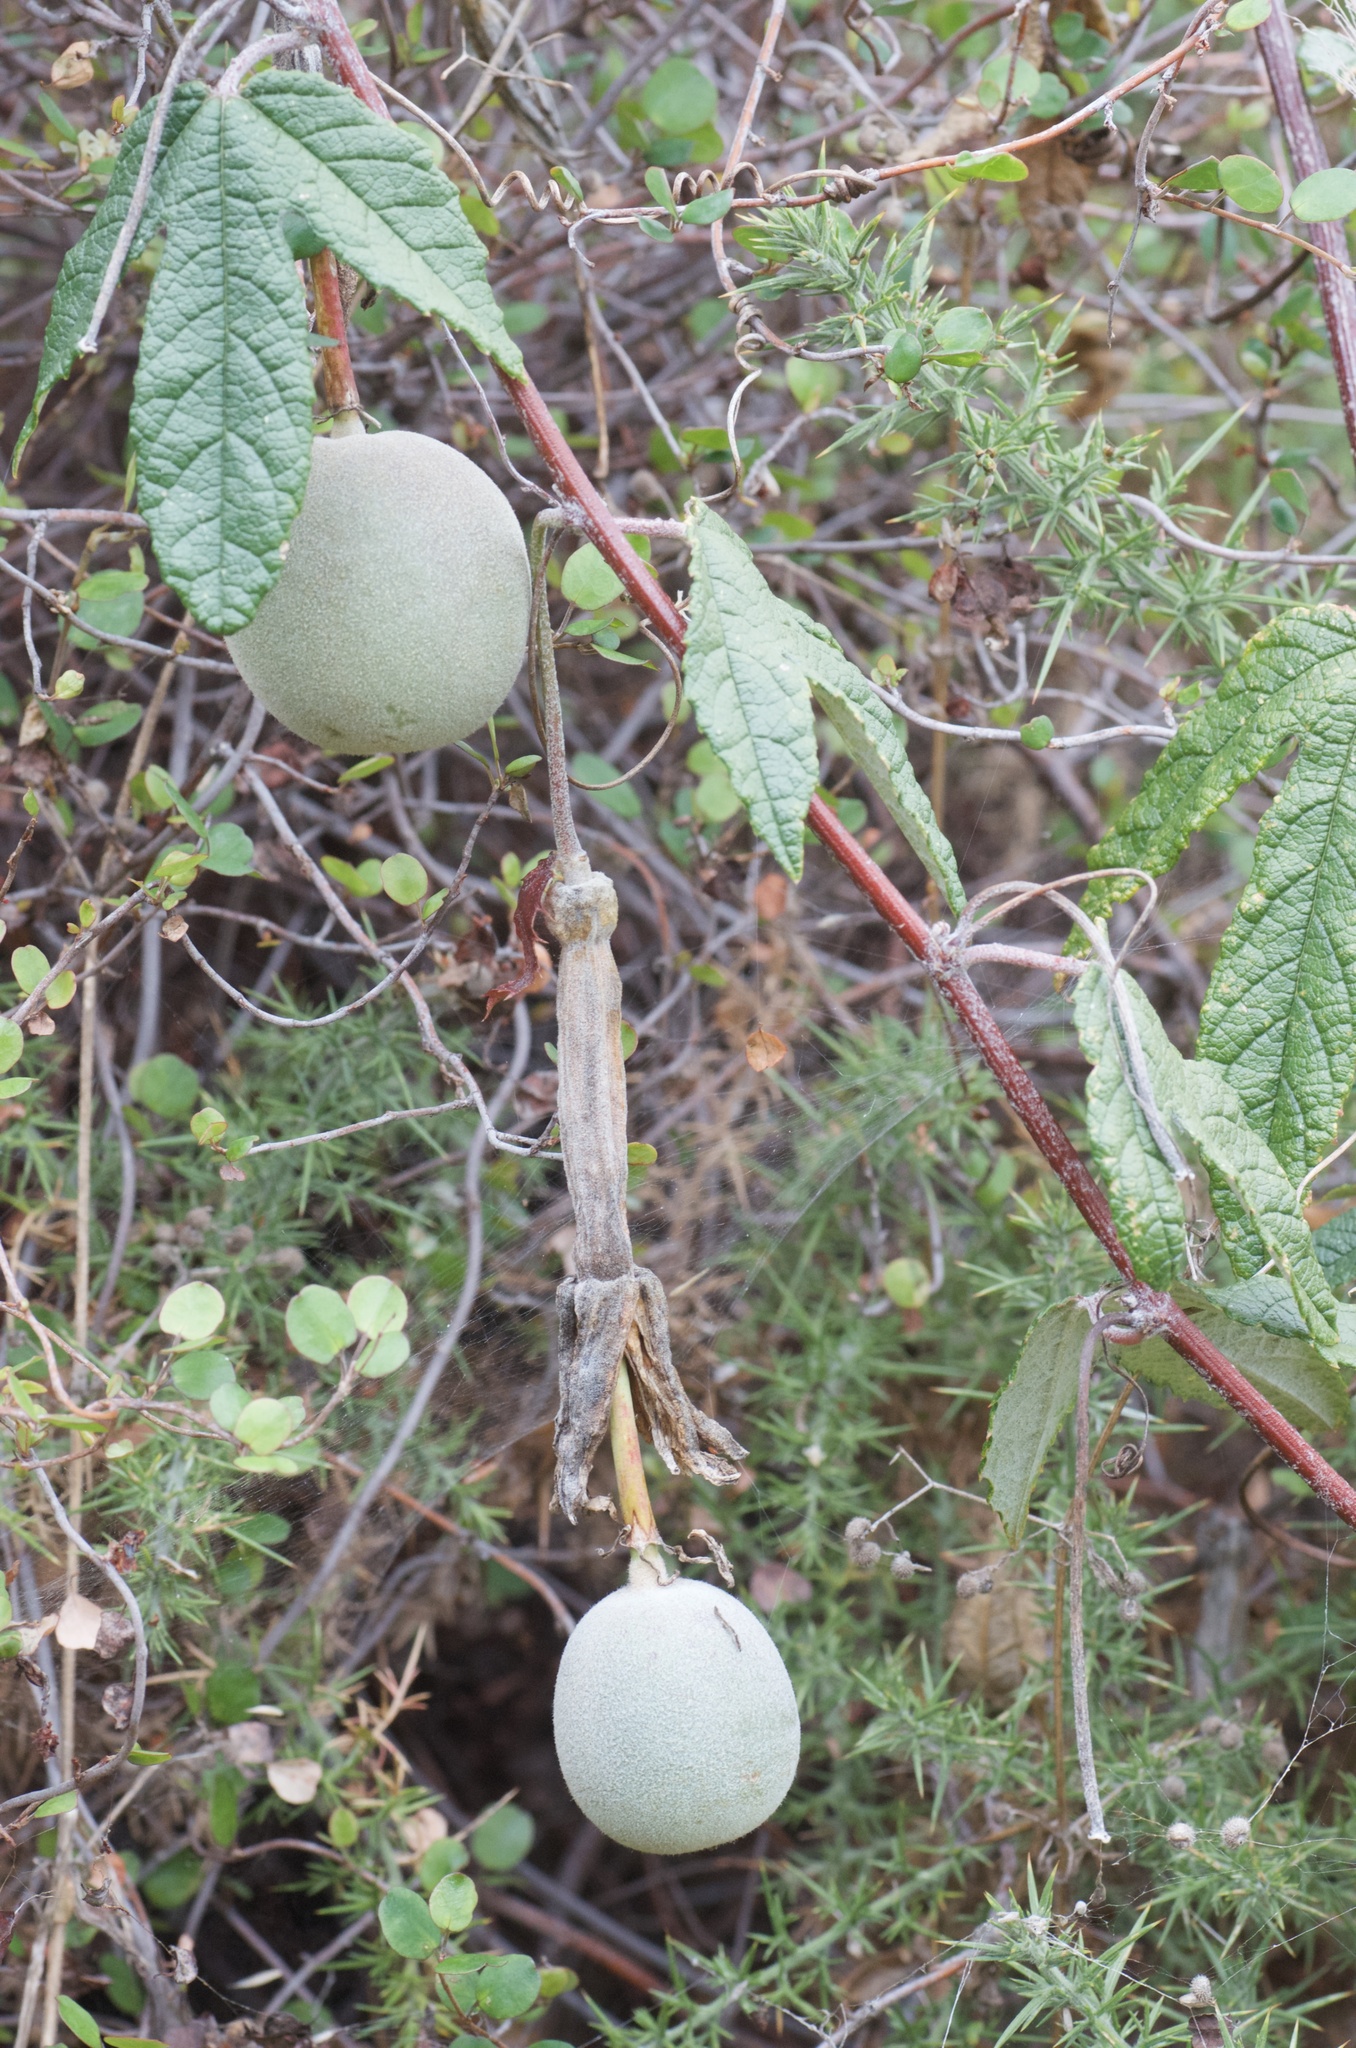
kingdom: Plantae
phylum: Tracheophyta
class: Magnoliopsida
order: Malpighiales
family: Passifloraceae
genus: Passiflora
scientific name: Passiflora tripartita
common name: Banana poka
